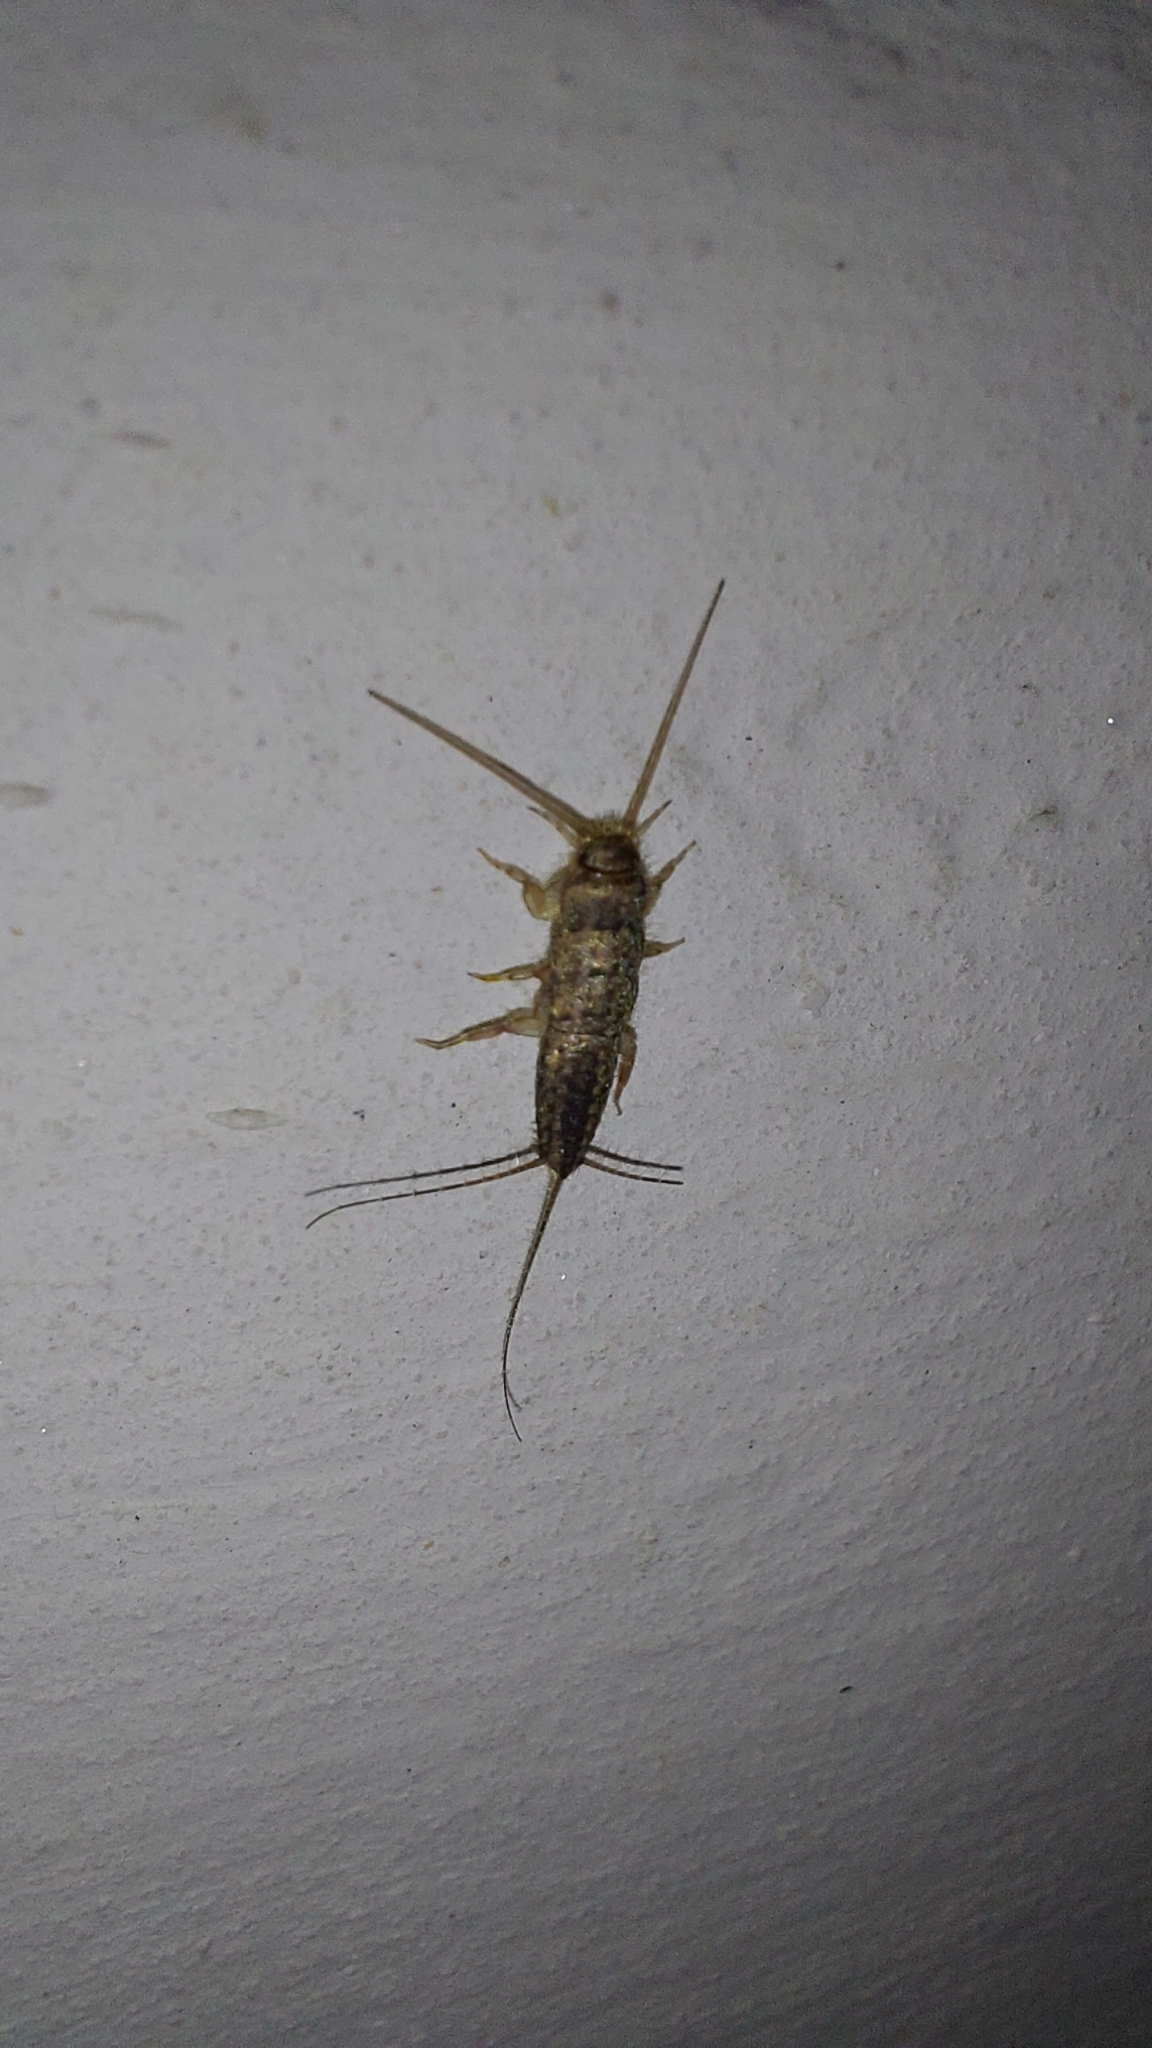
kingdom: Animalia
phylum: Arthropoda
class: Insecta
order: Zygentoma
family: Lepismatidae
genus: Ctenolepisma
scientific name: Ctenolepisma lineata
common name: Four-lined silverfish
